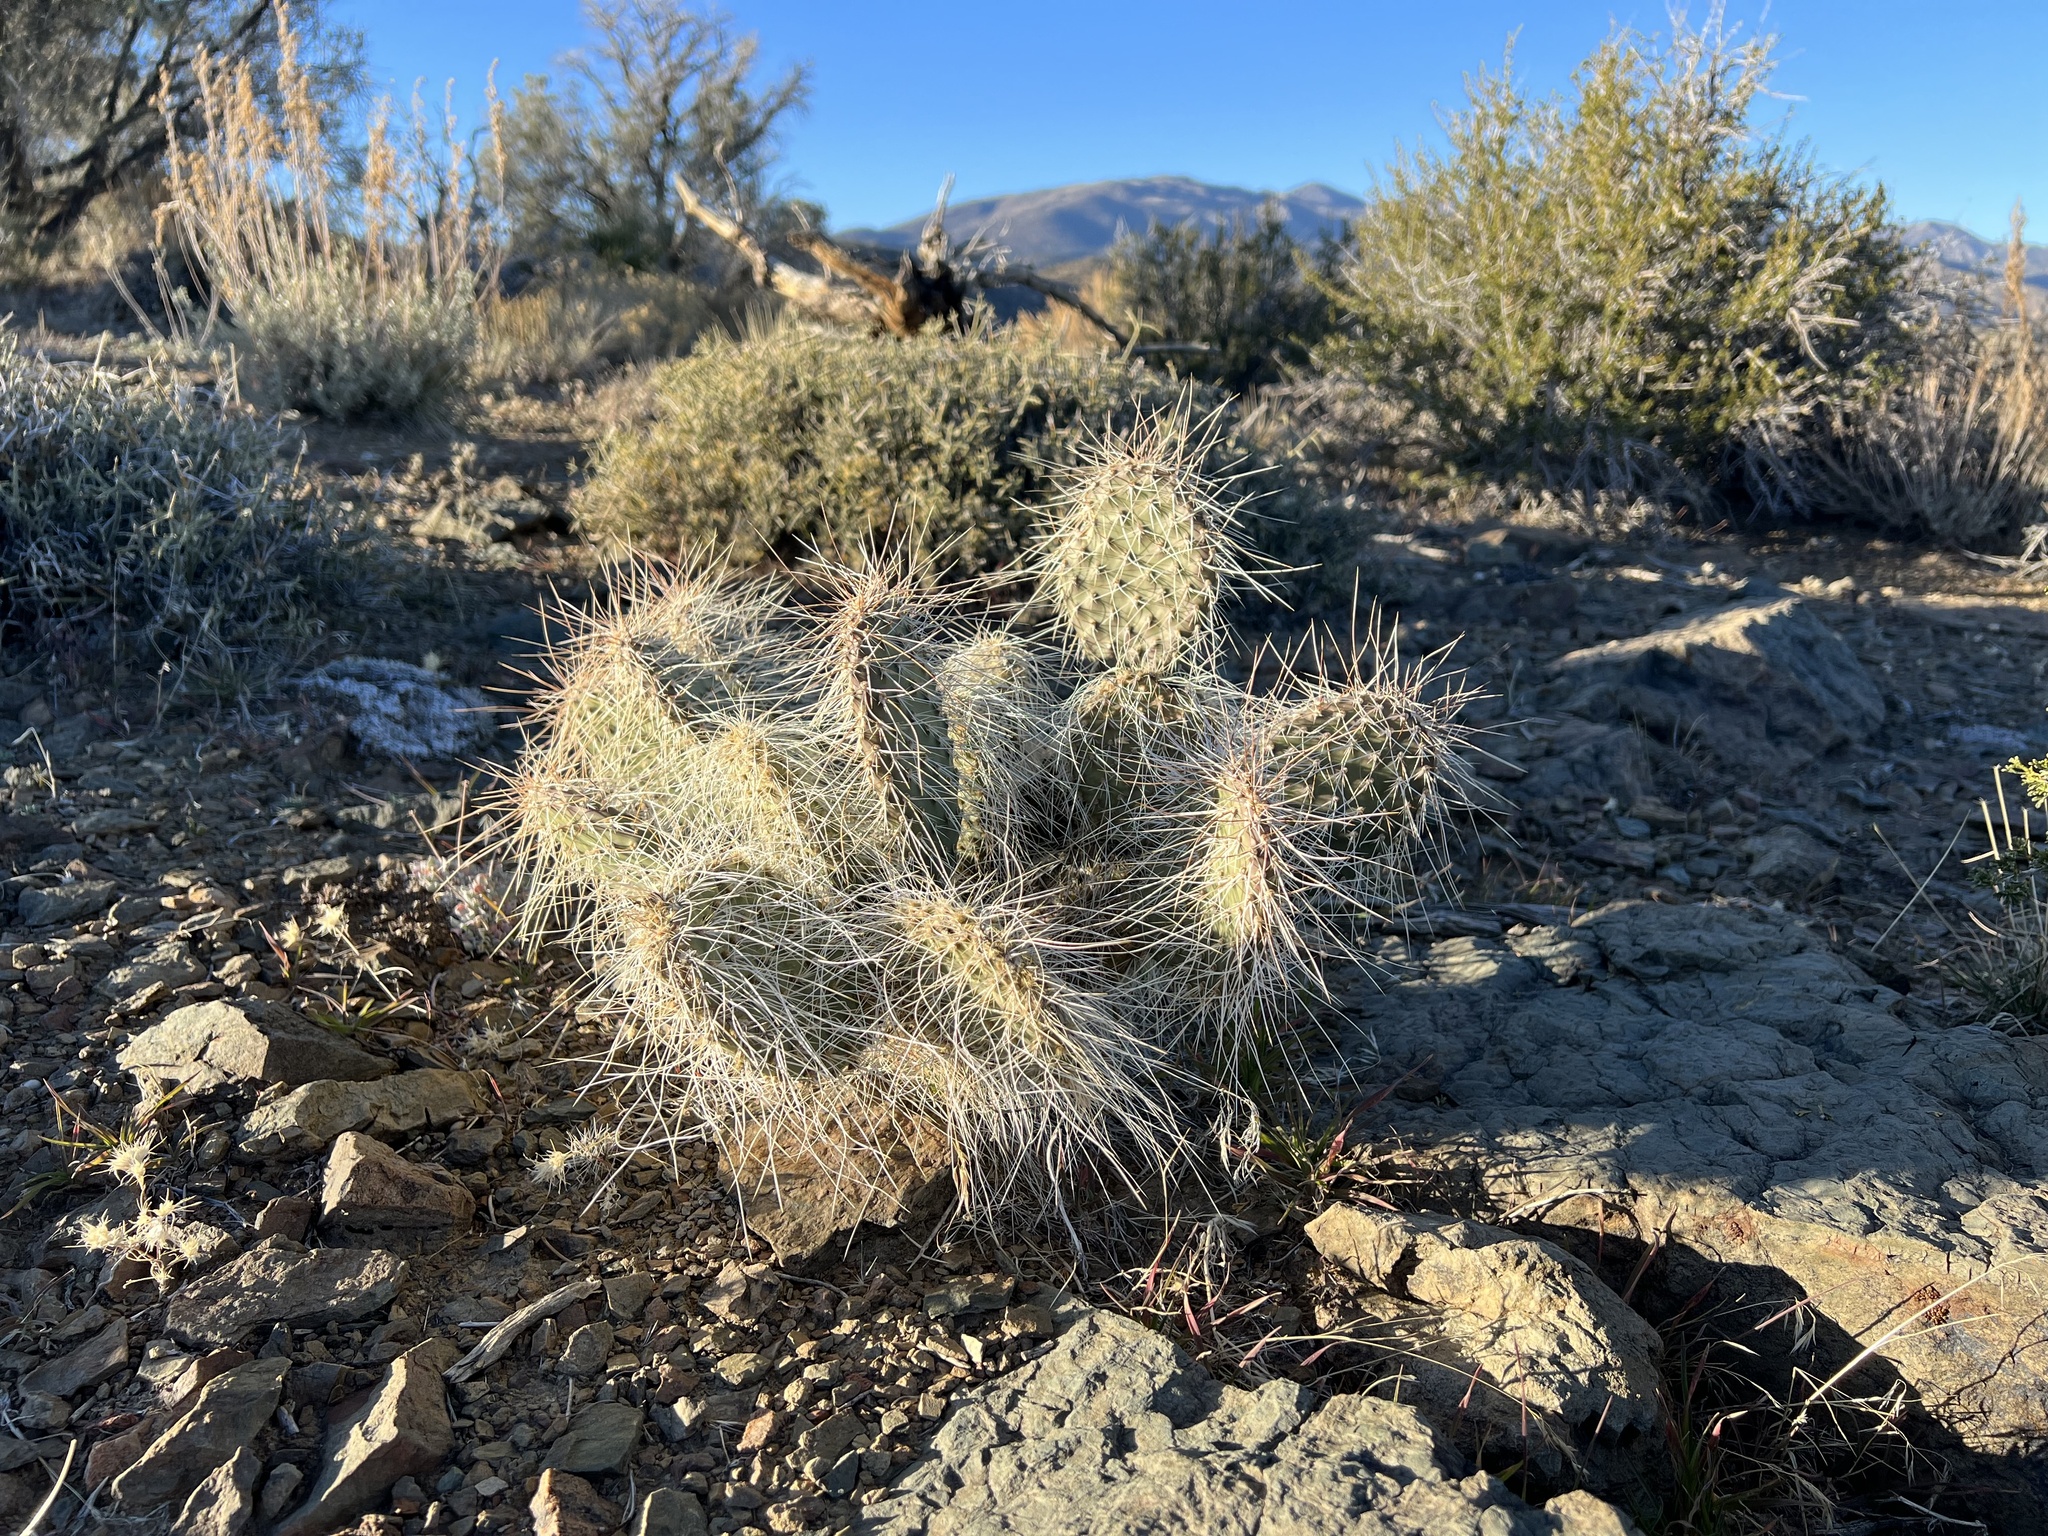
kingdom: Plantae
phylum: Tracheophyta
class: Magnoliopsida
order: Caryophyllales
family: Cactaceae
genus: Opuntia
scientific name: Opuntia polyacantha
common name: Plains prickly-pear
